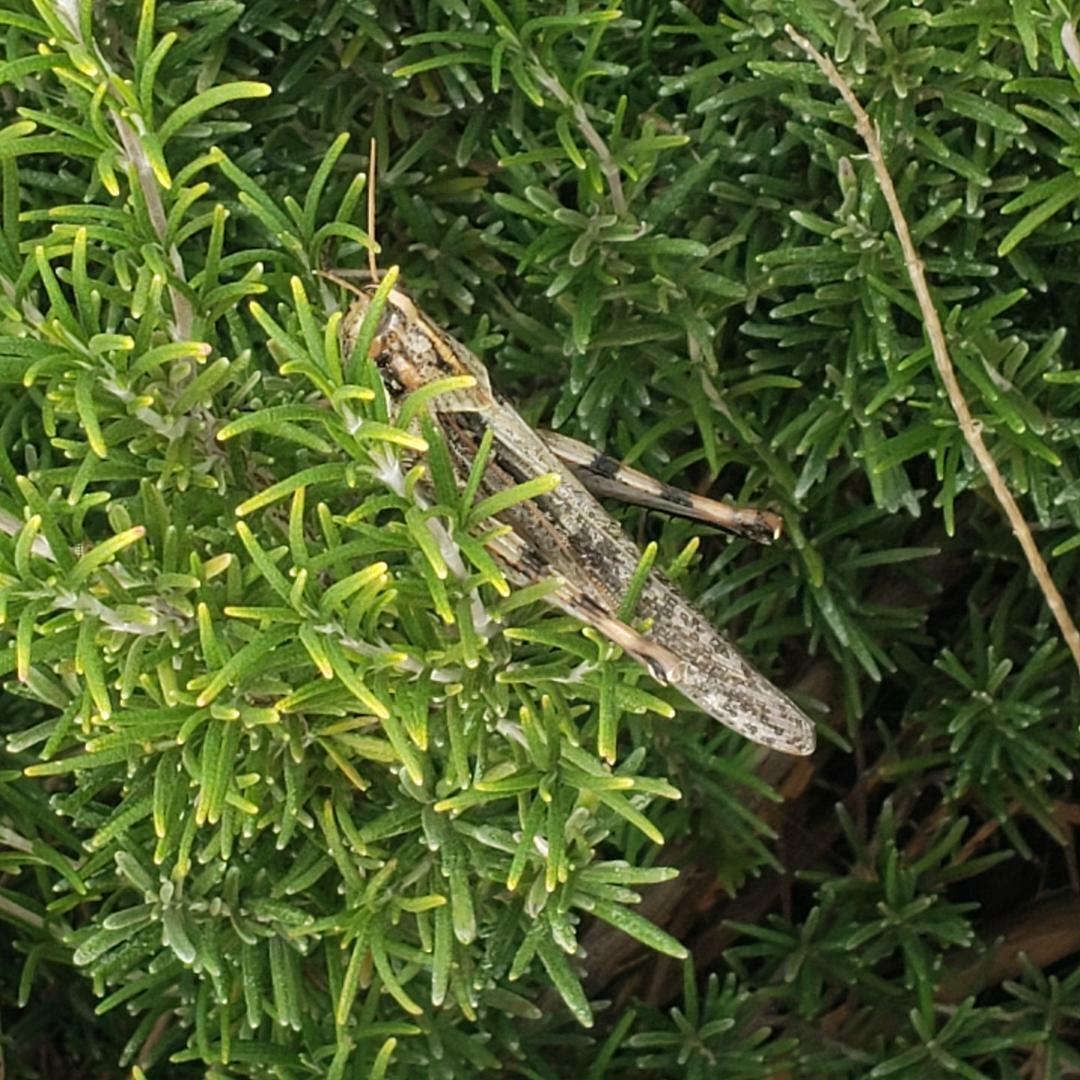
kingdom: Animalia
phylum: Arthropoda
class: Insecta
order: Orthoptera
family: Acrididae
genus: Schistocerca
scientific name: Schistocerca nitens
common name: Vagrant grasshopper
